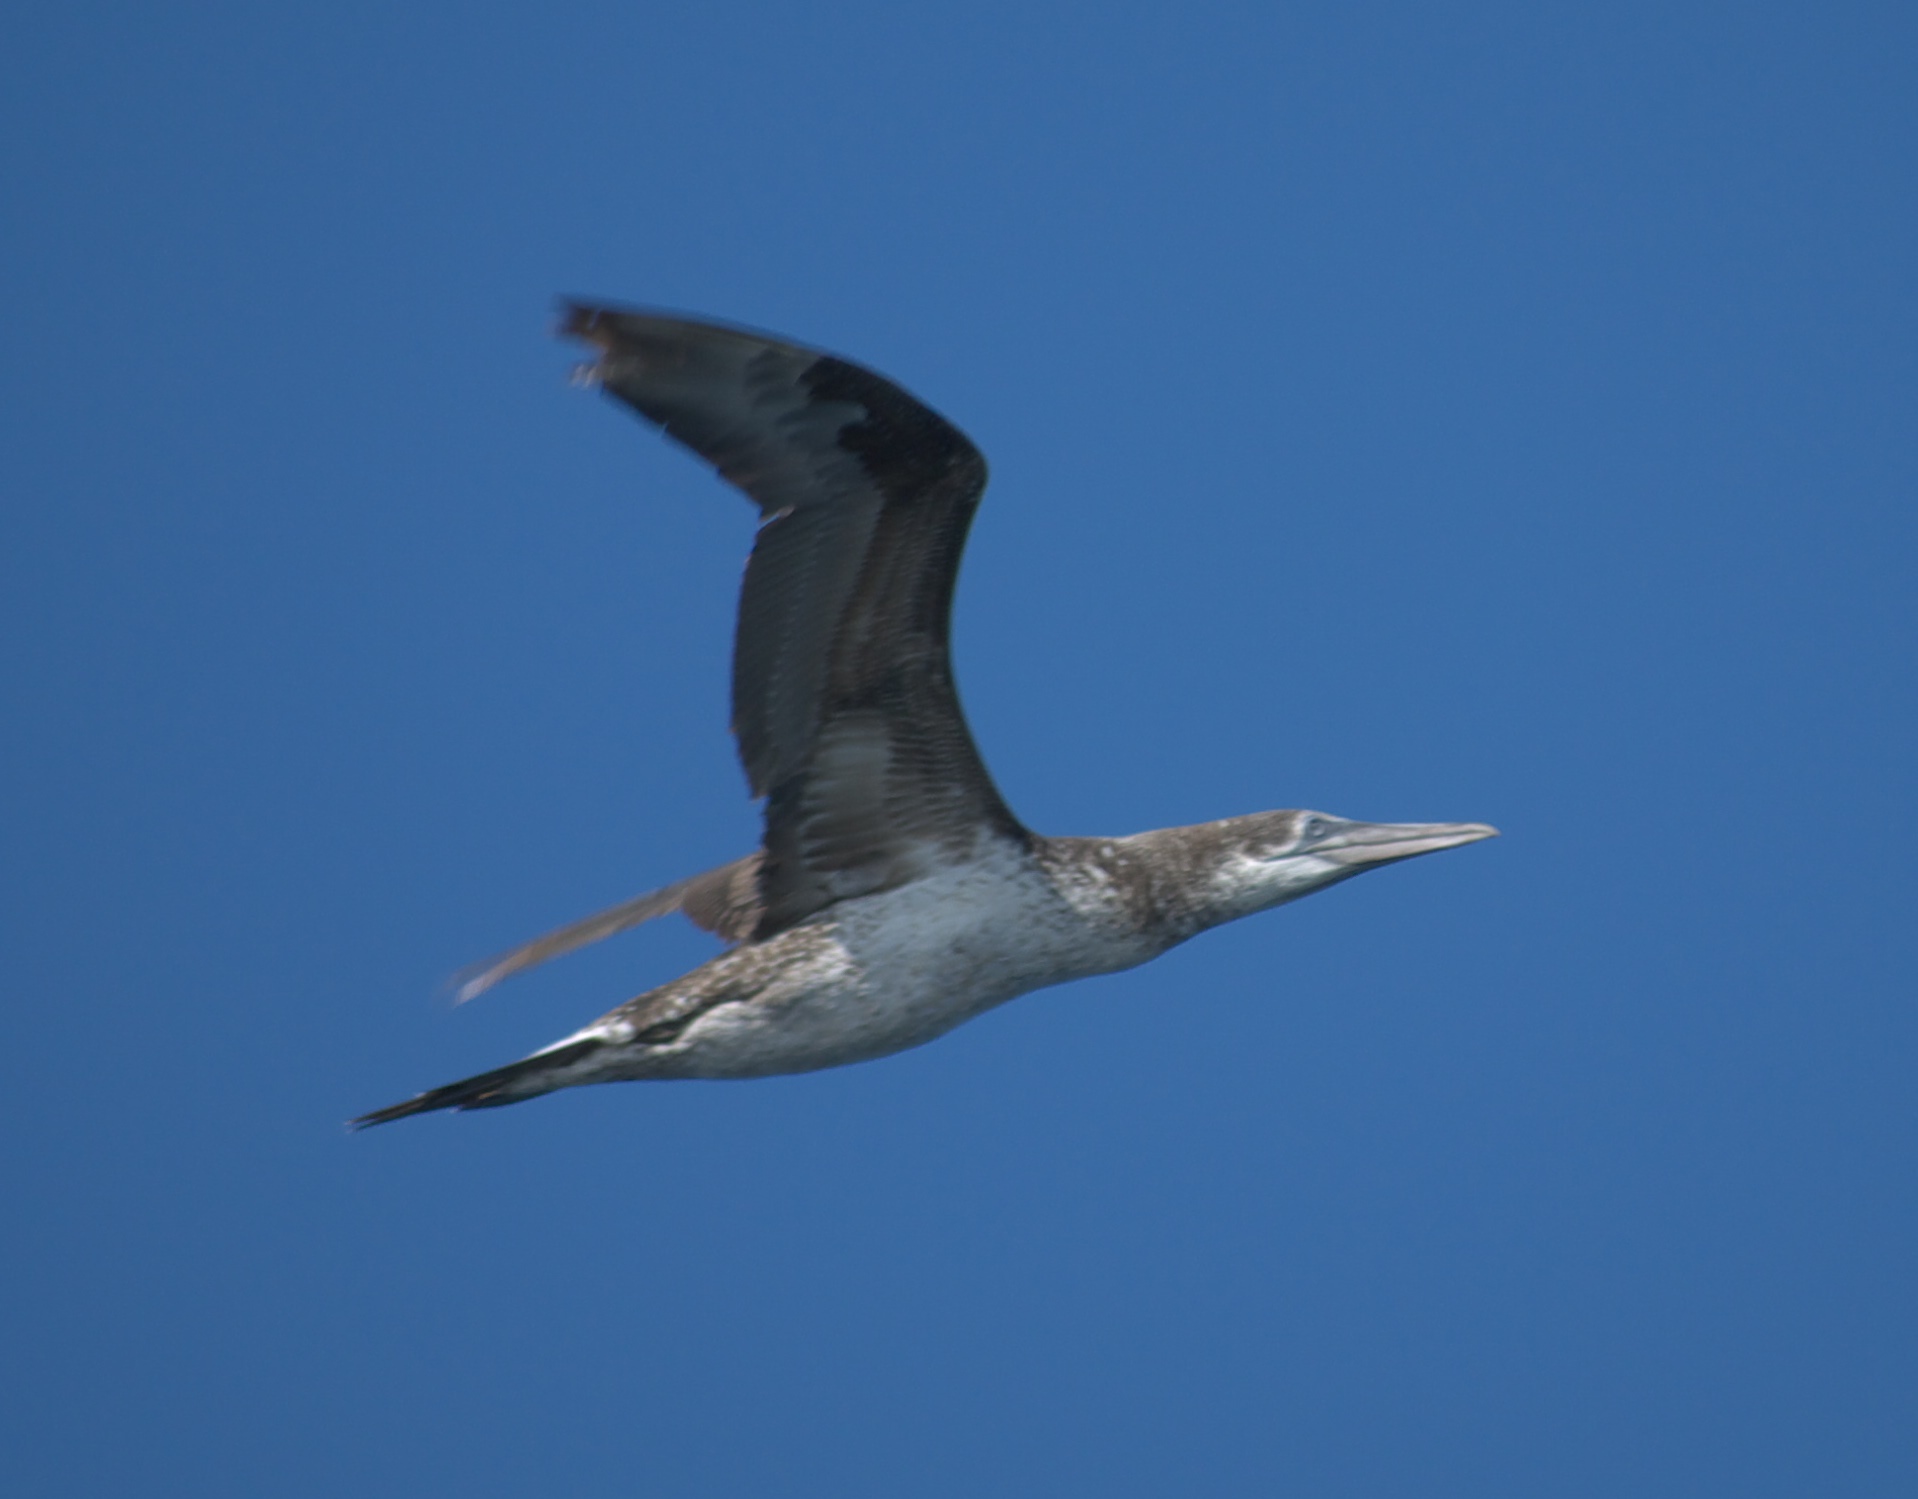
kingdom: Animalia
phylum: Chordata
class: Aves
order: Suliformes
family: Sulidae
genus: Morus
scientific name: Morus bassanus
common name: Northern gannet
